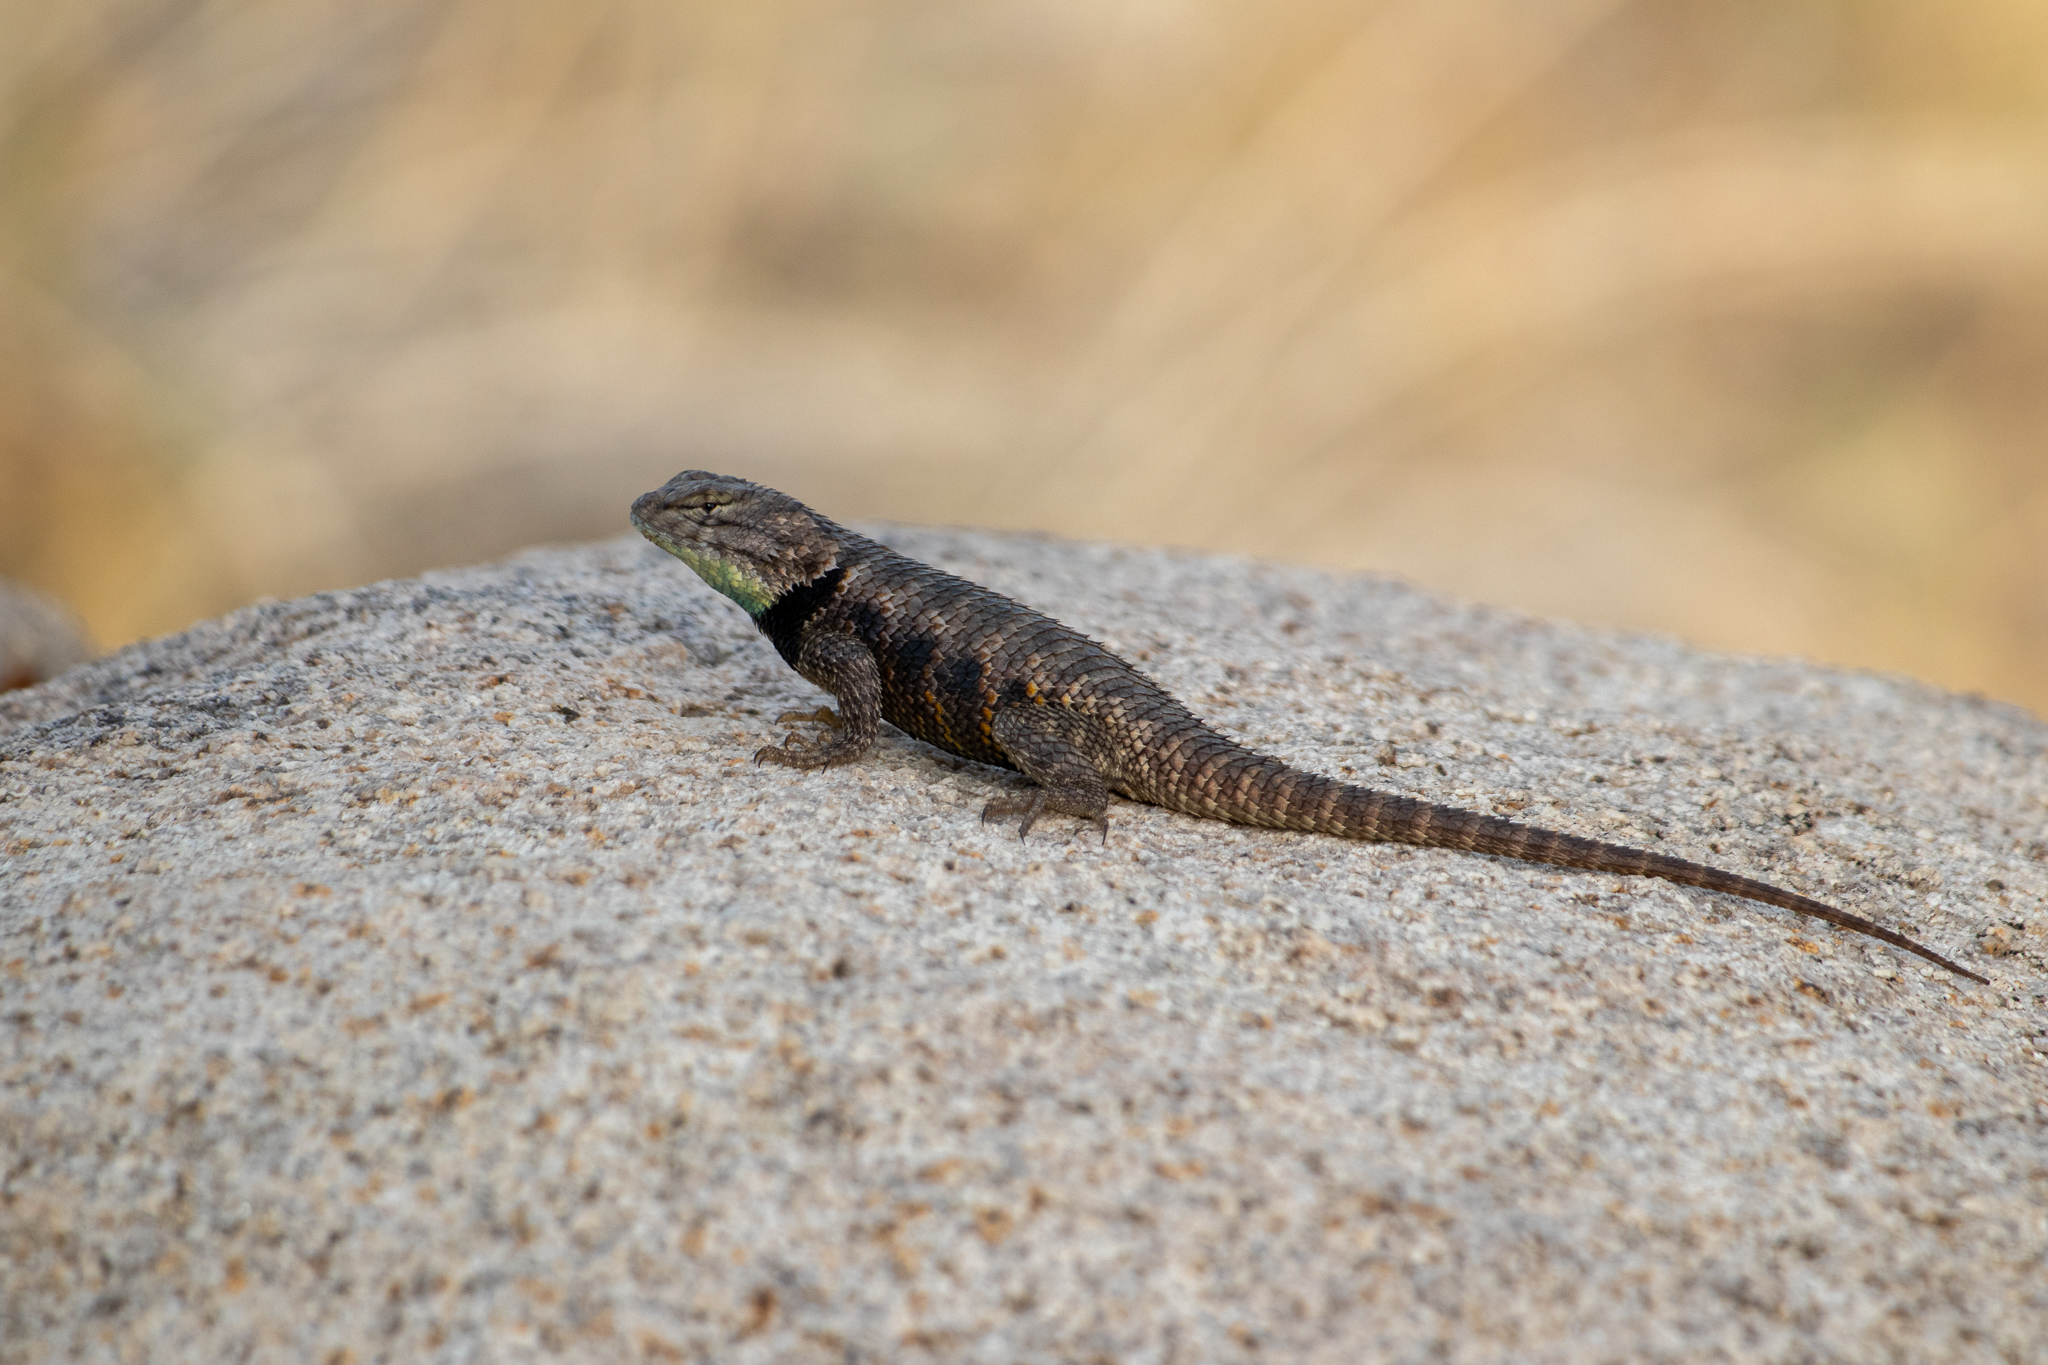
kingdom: Animalia
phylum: Chordata
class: Squamata
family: Phrynosomatidae
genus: Sceloporus
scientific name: Sceloporus uniformis
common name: Yellow-backed spiny lizard
